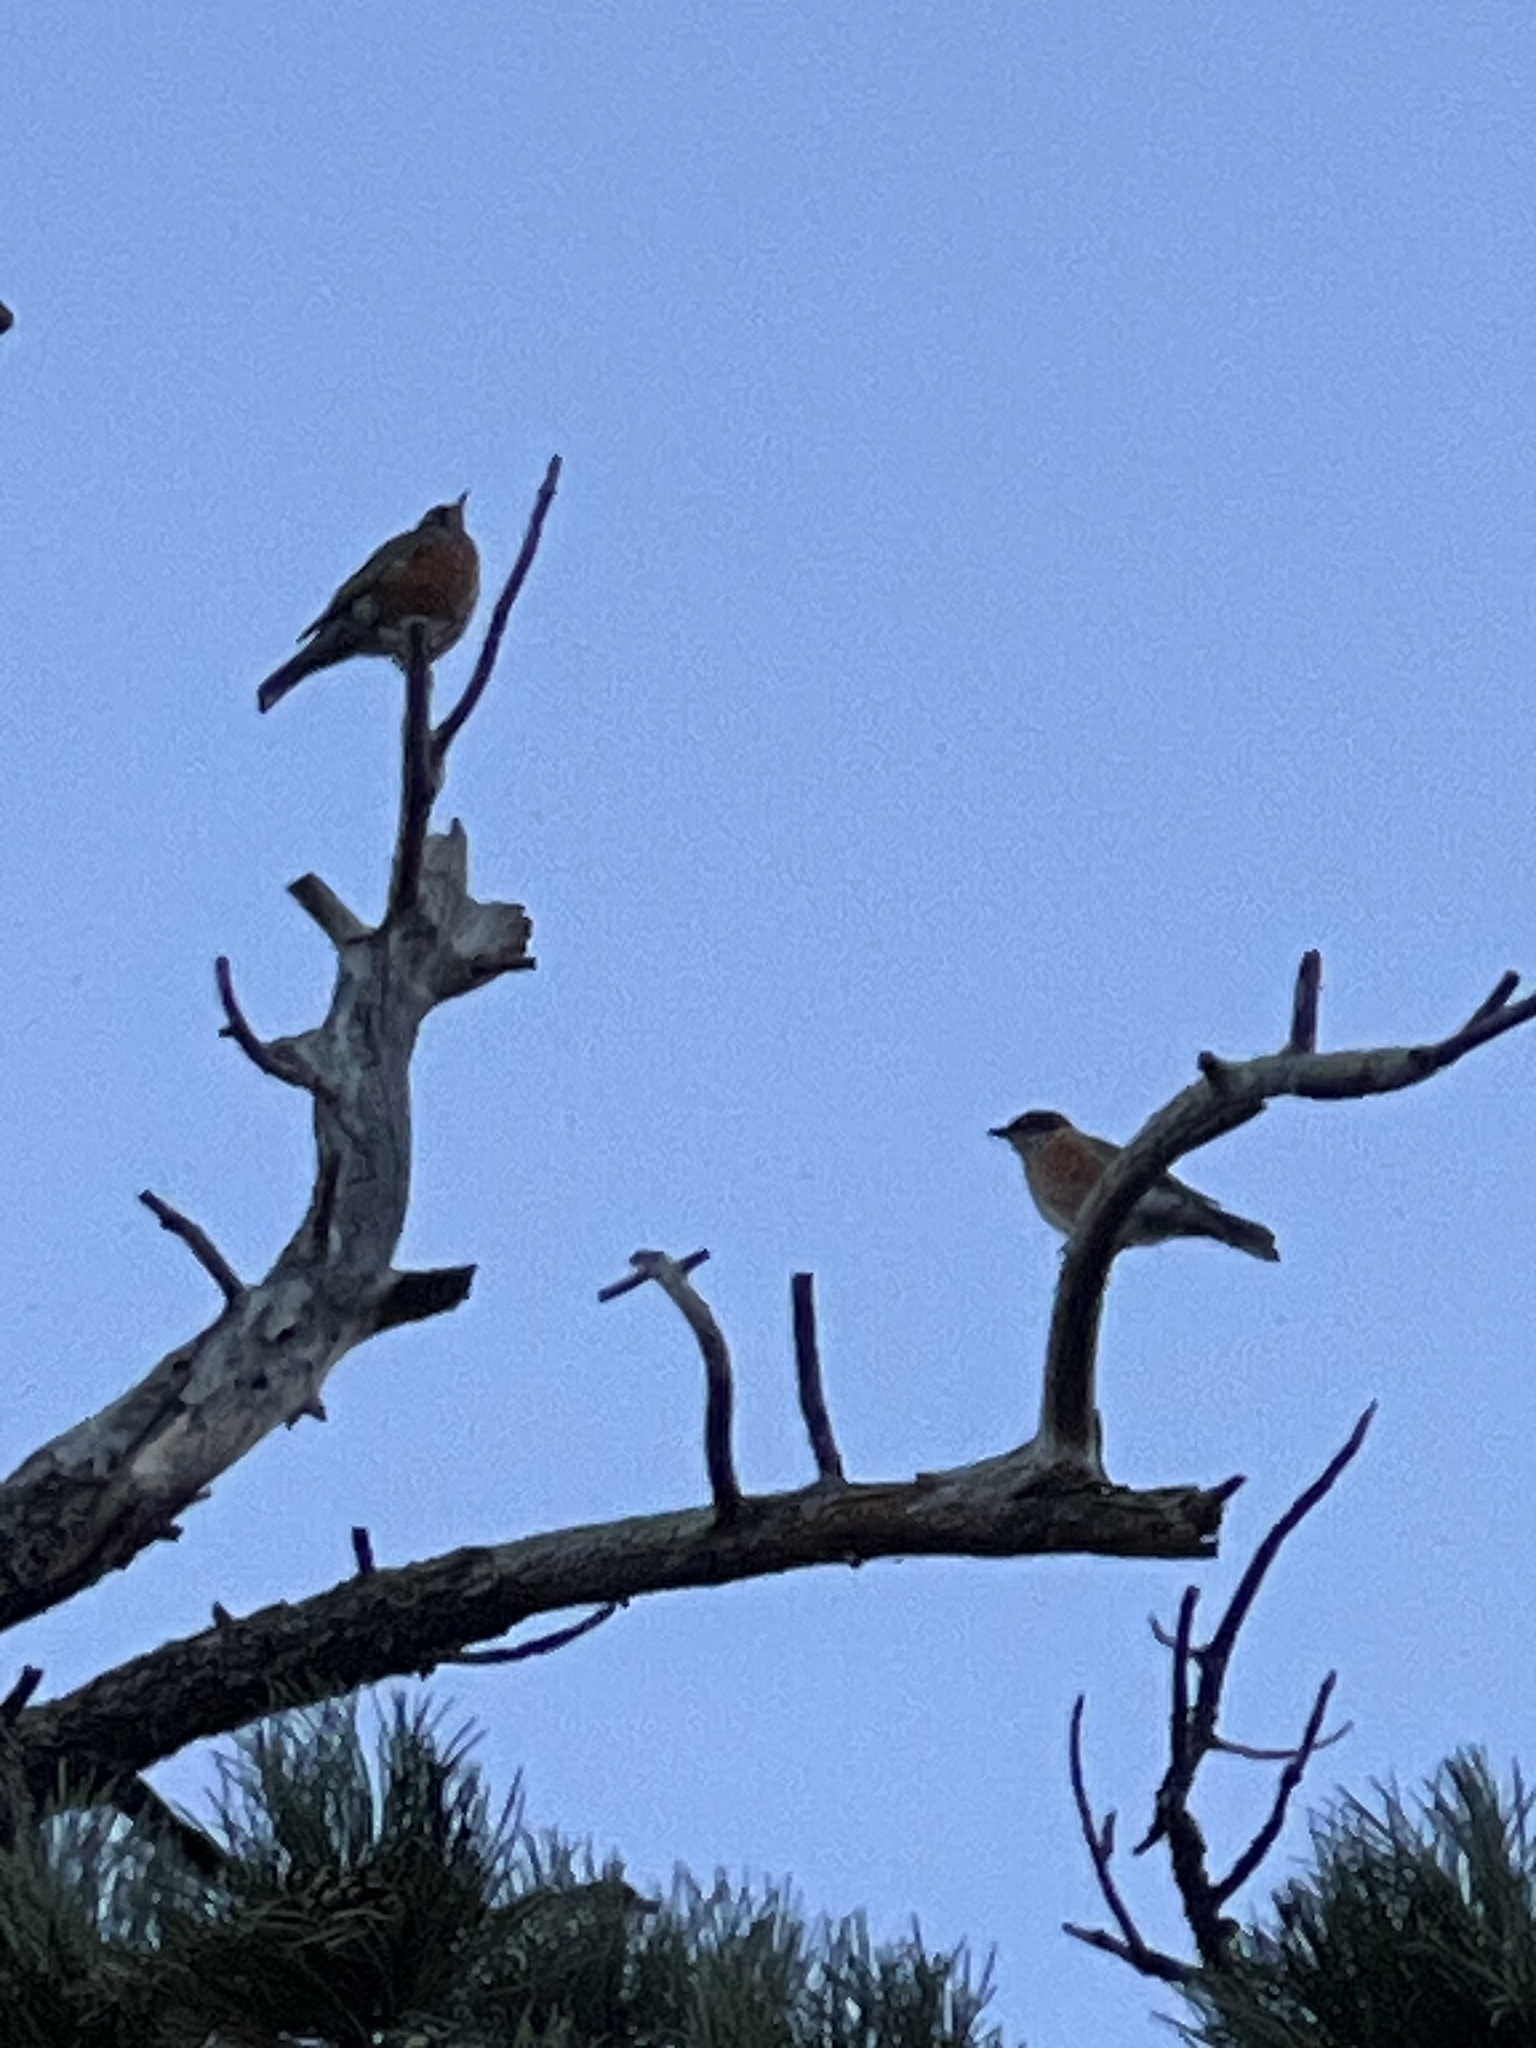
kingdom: Animalia
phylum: Chordata
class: Aves
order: Passeriformes
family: Turdidae
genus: Turdus
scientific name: Turdus migratorius
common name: American robin
